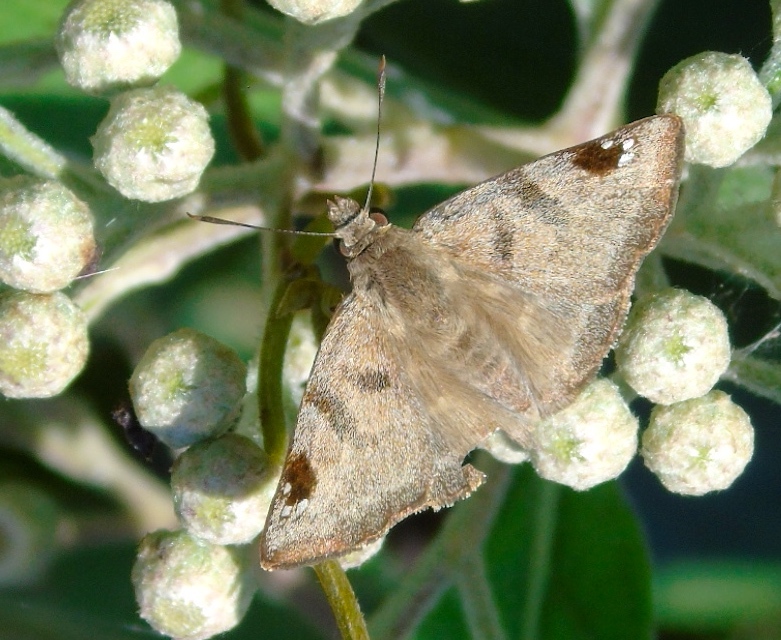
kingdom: Animalia
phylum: Arthropoda
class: Insecta
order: Lepidoptera
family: Hesperiidae
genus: Arteurotia
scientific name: Arteurotia tractipennis
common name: Starred skipper
